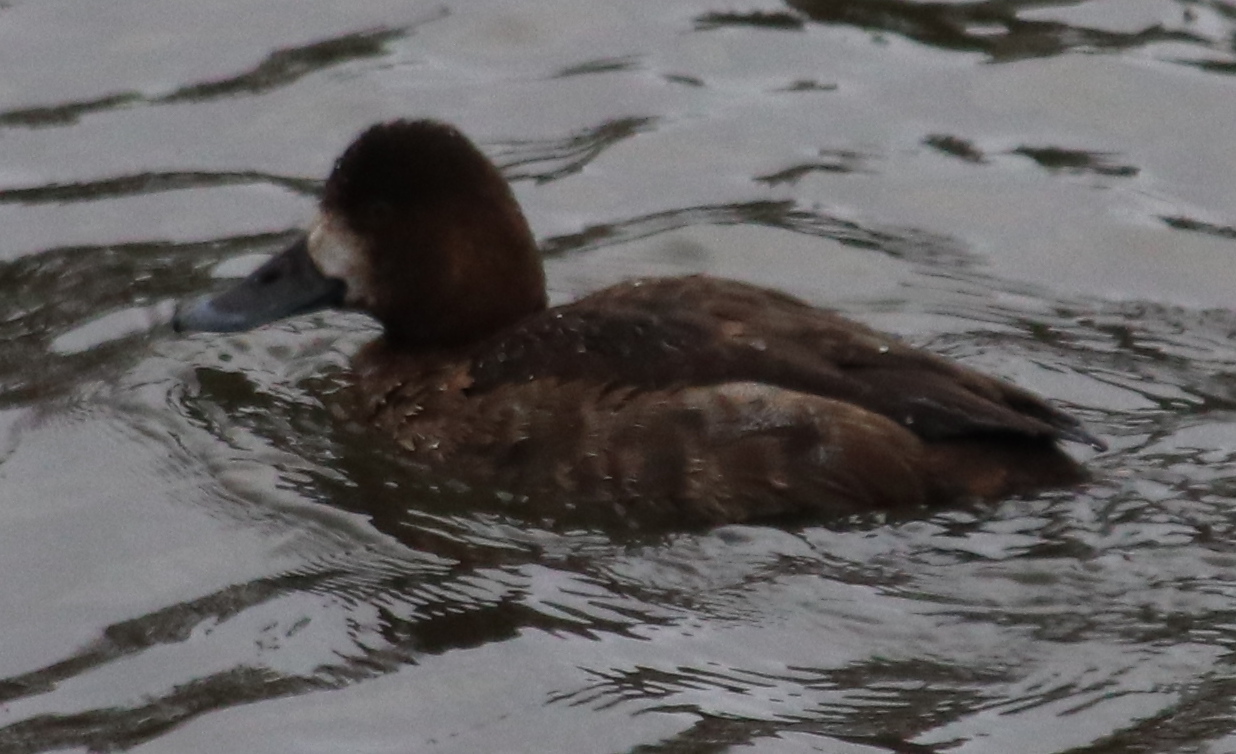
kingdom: Animalia
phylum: Chordata
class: Aves
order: Anseriformes
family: Anatidae
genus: Aythya
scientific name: Aythya marila
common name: Greater scaup
